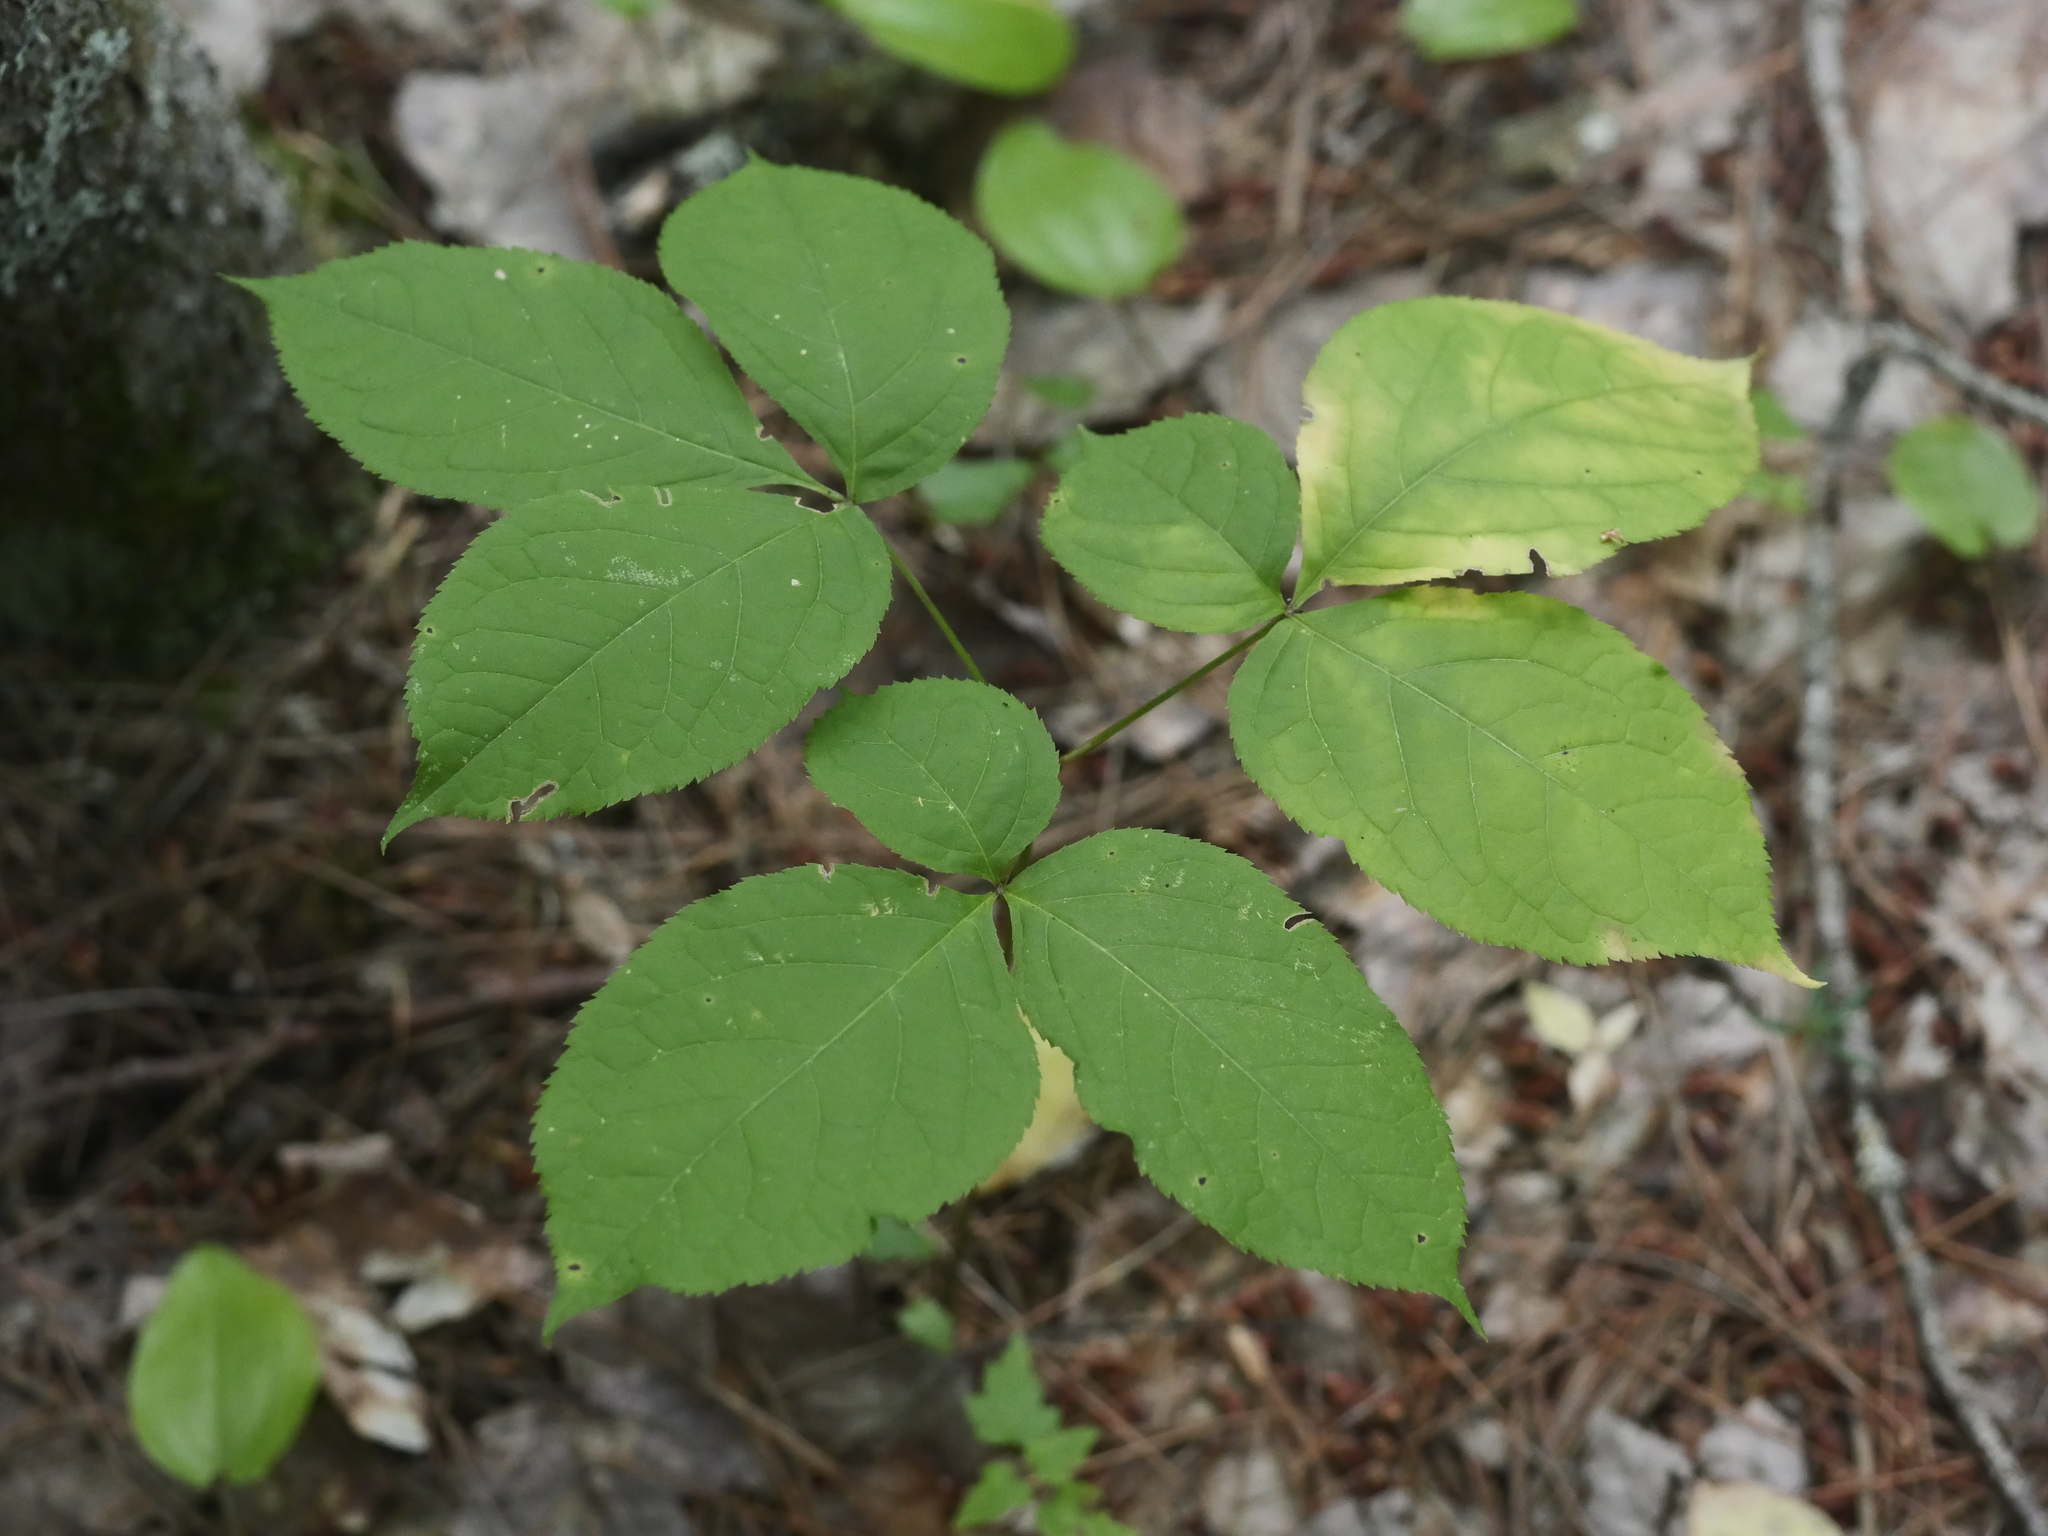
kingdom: Plantae
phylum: Tracheophyta
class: Magnoliopsida
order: Apiales
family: Araliaceae
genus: Aralia
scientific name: Aralia nudicaulis
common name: Wild sarsaparilla
